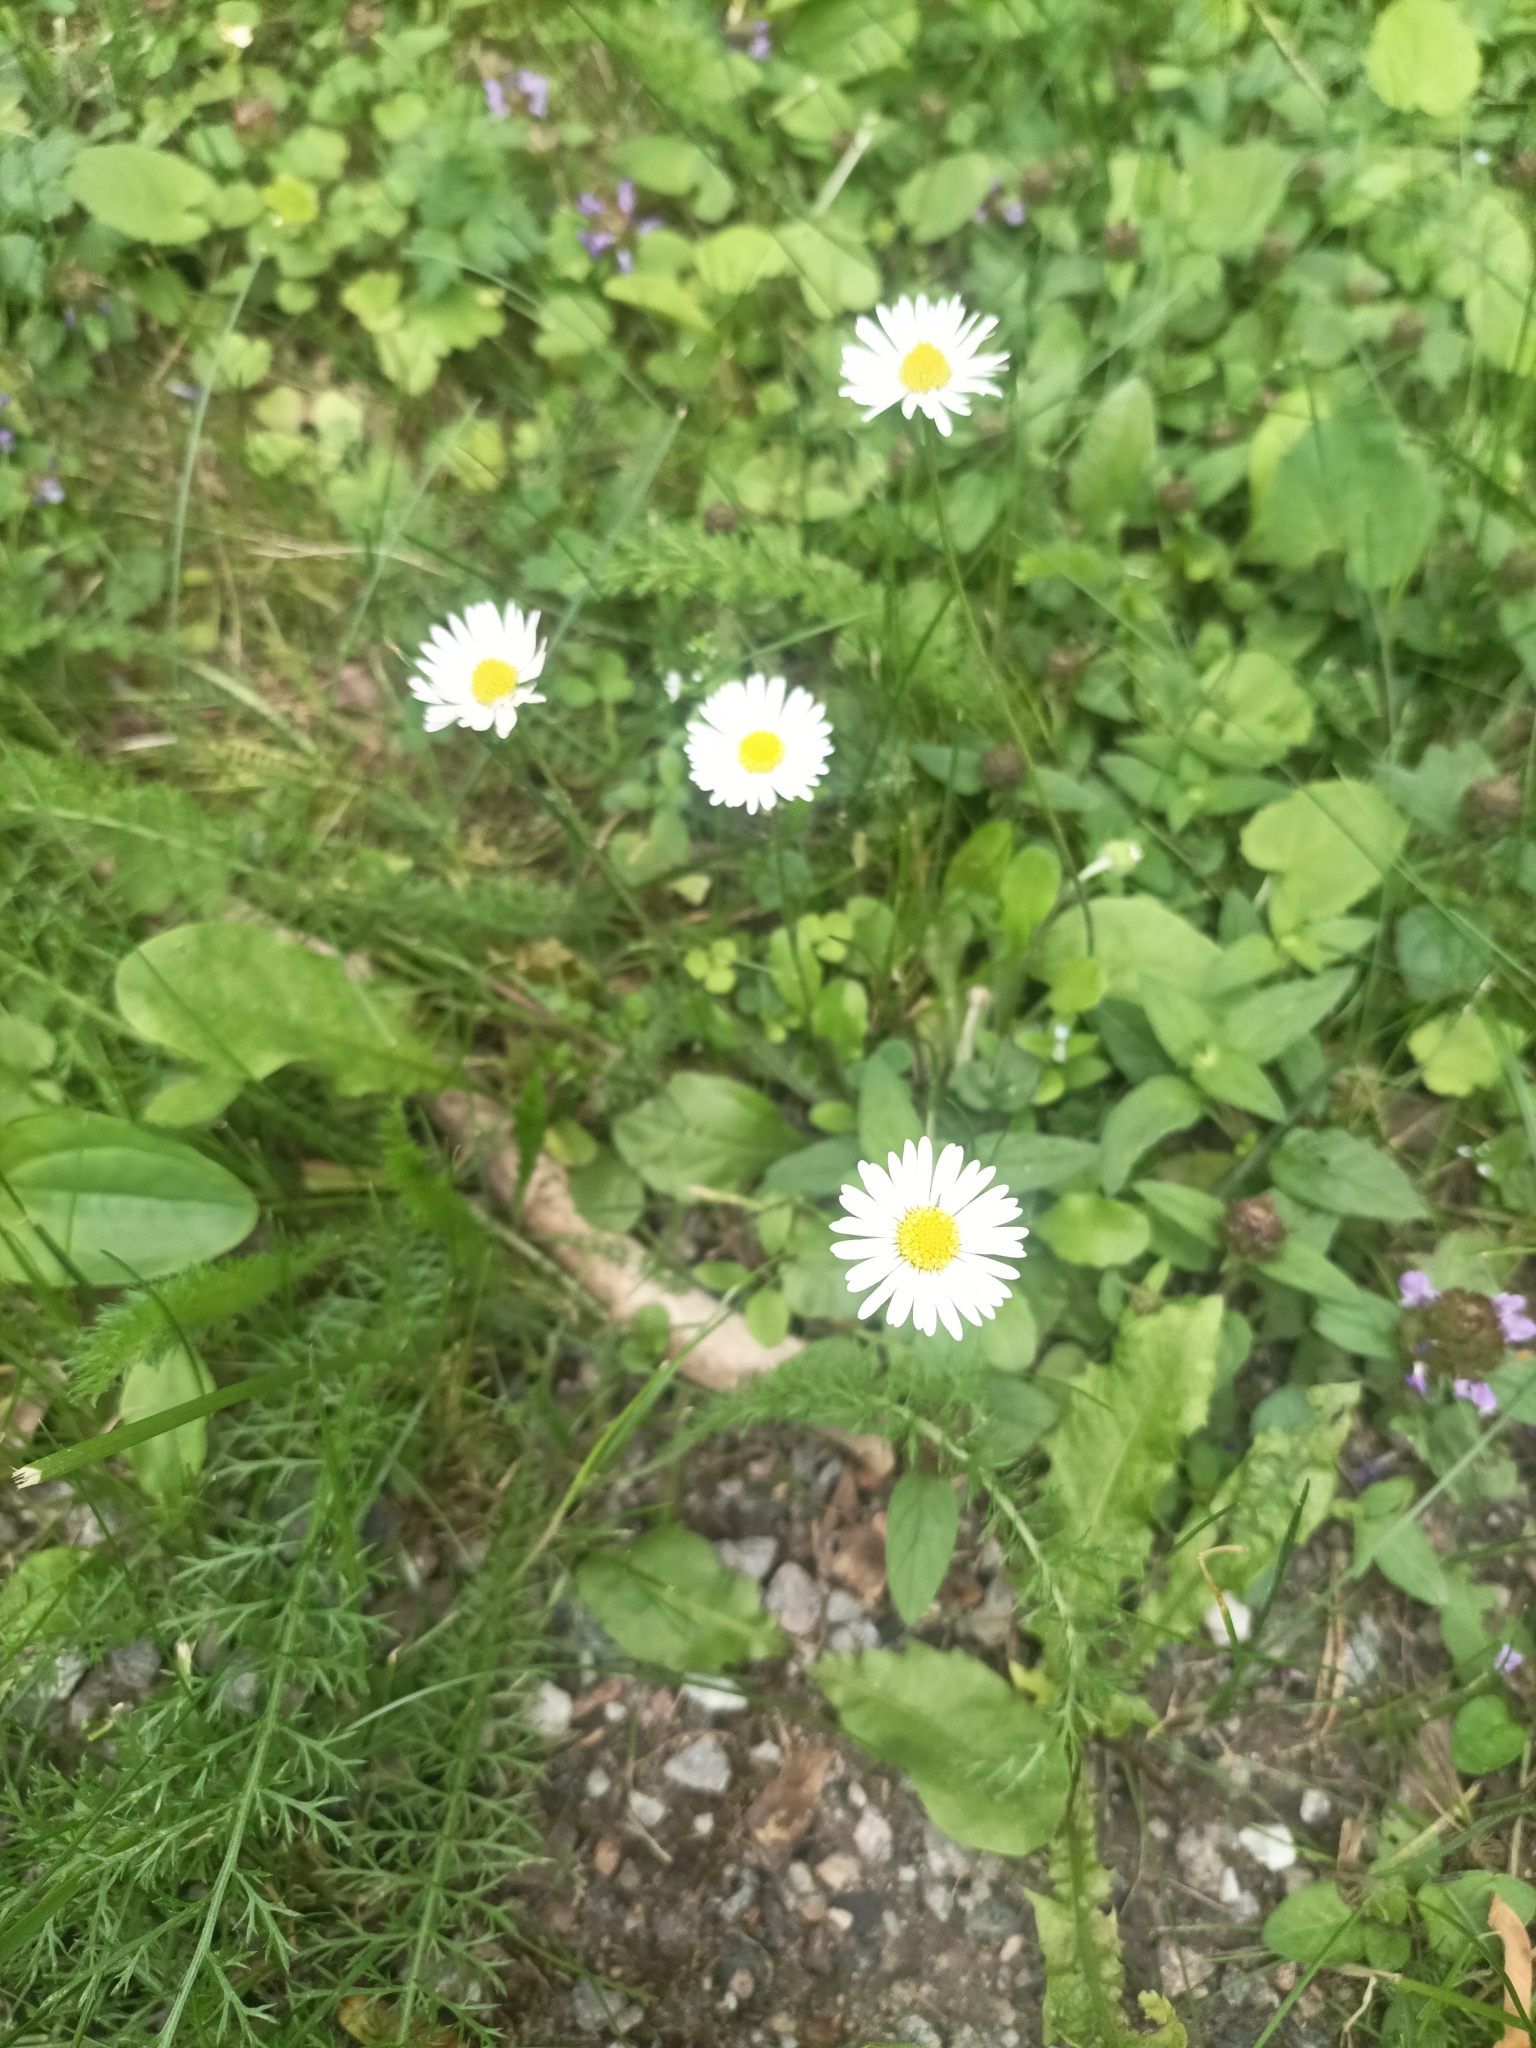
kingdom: Plantae
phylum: Tracheophyta
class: Magnoliopsida
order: Asterales
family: Asteraceae
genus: Bellis
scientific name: Bellis perennis
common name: Lawndaisy
